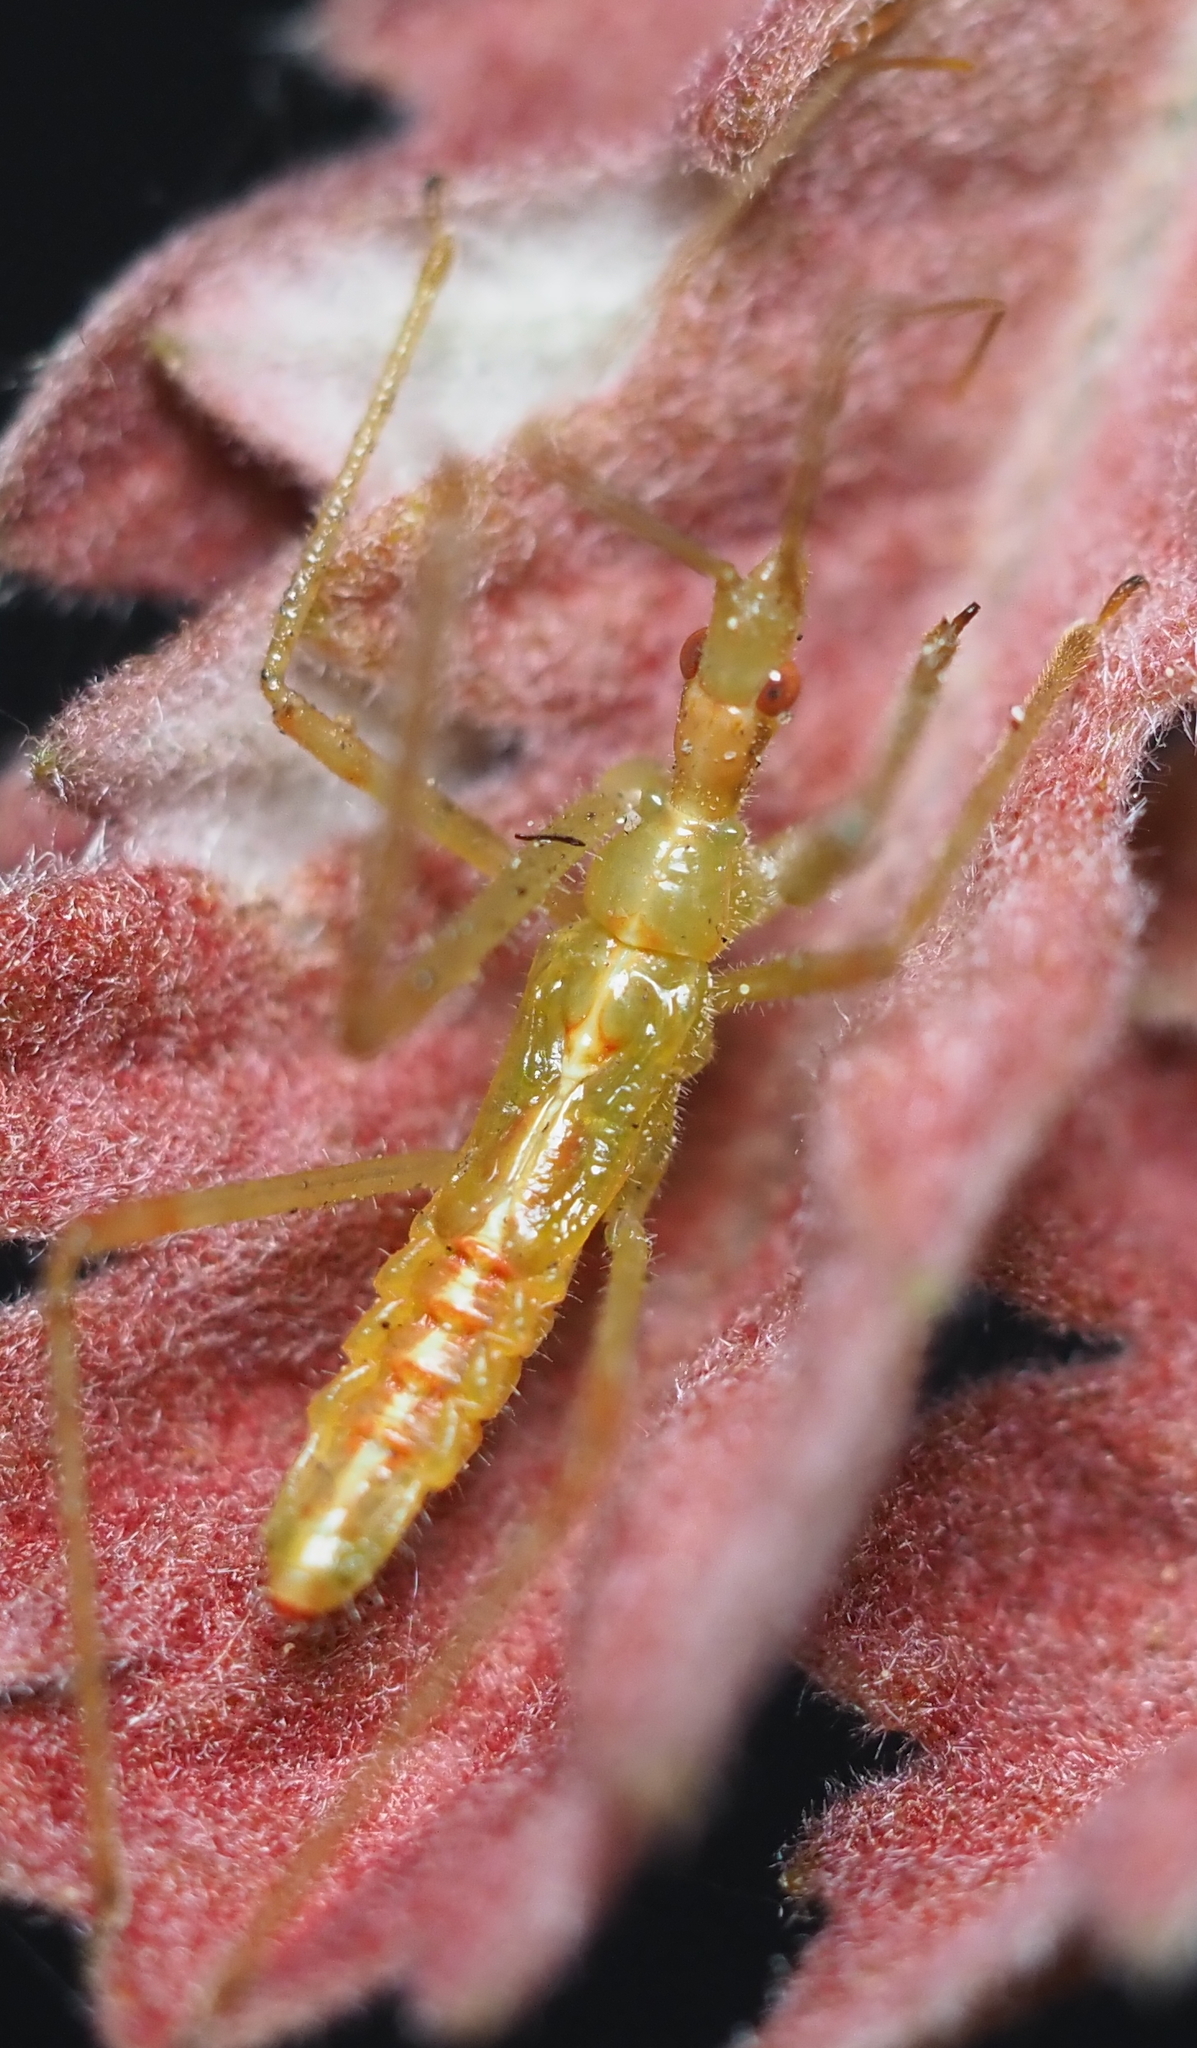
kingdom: Animalia
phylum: Arthropoda
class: Insecta
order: Hemiptera
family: Reduviidae
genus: Zelus
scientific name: Zelus luridus
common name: Pale green assassin bug
